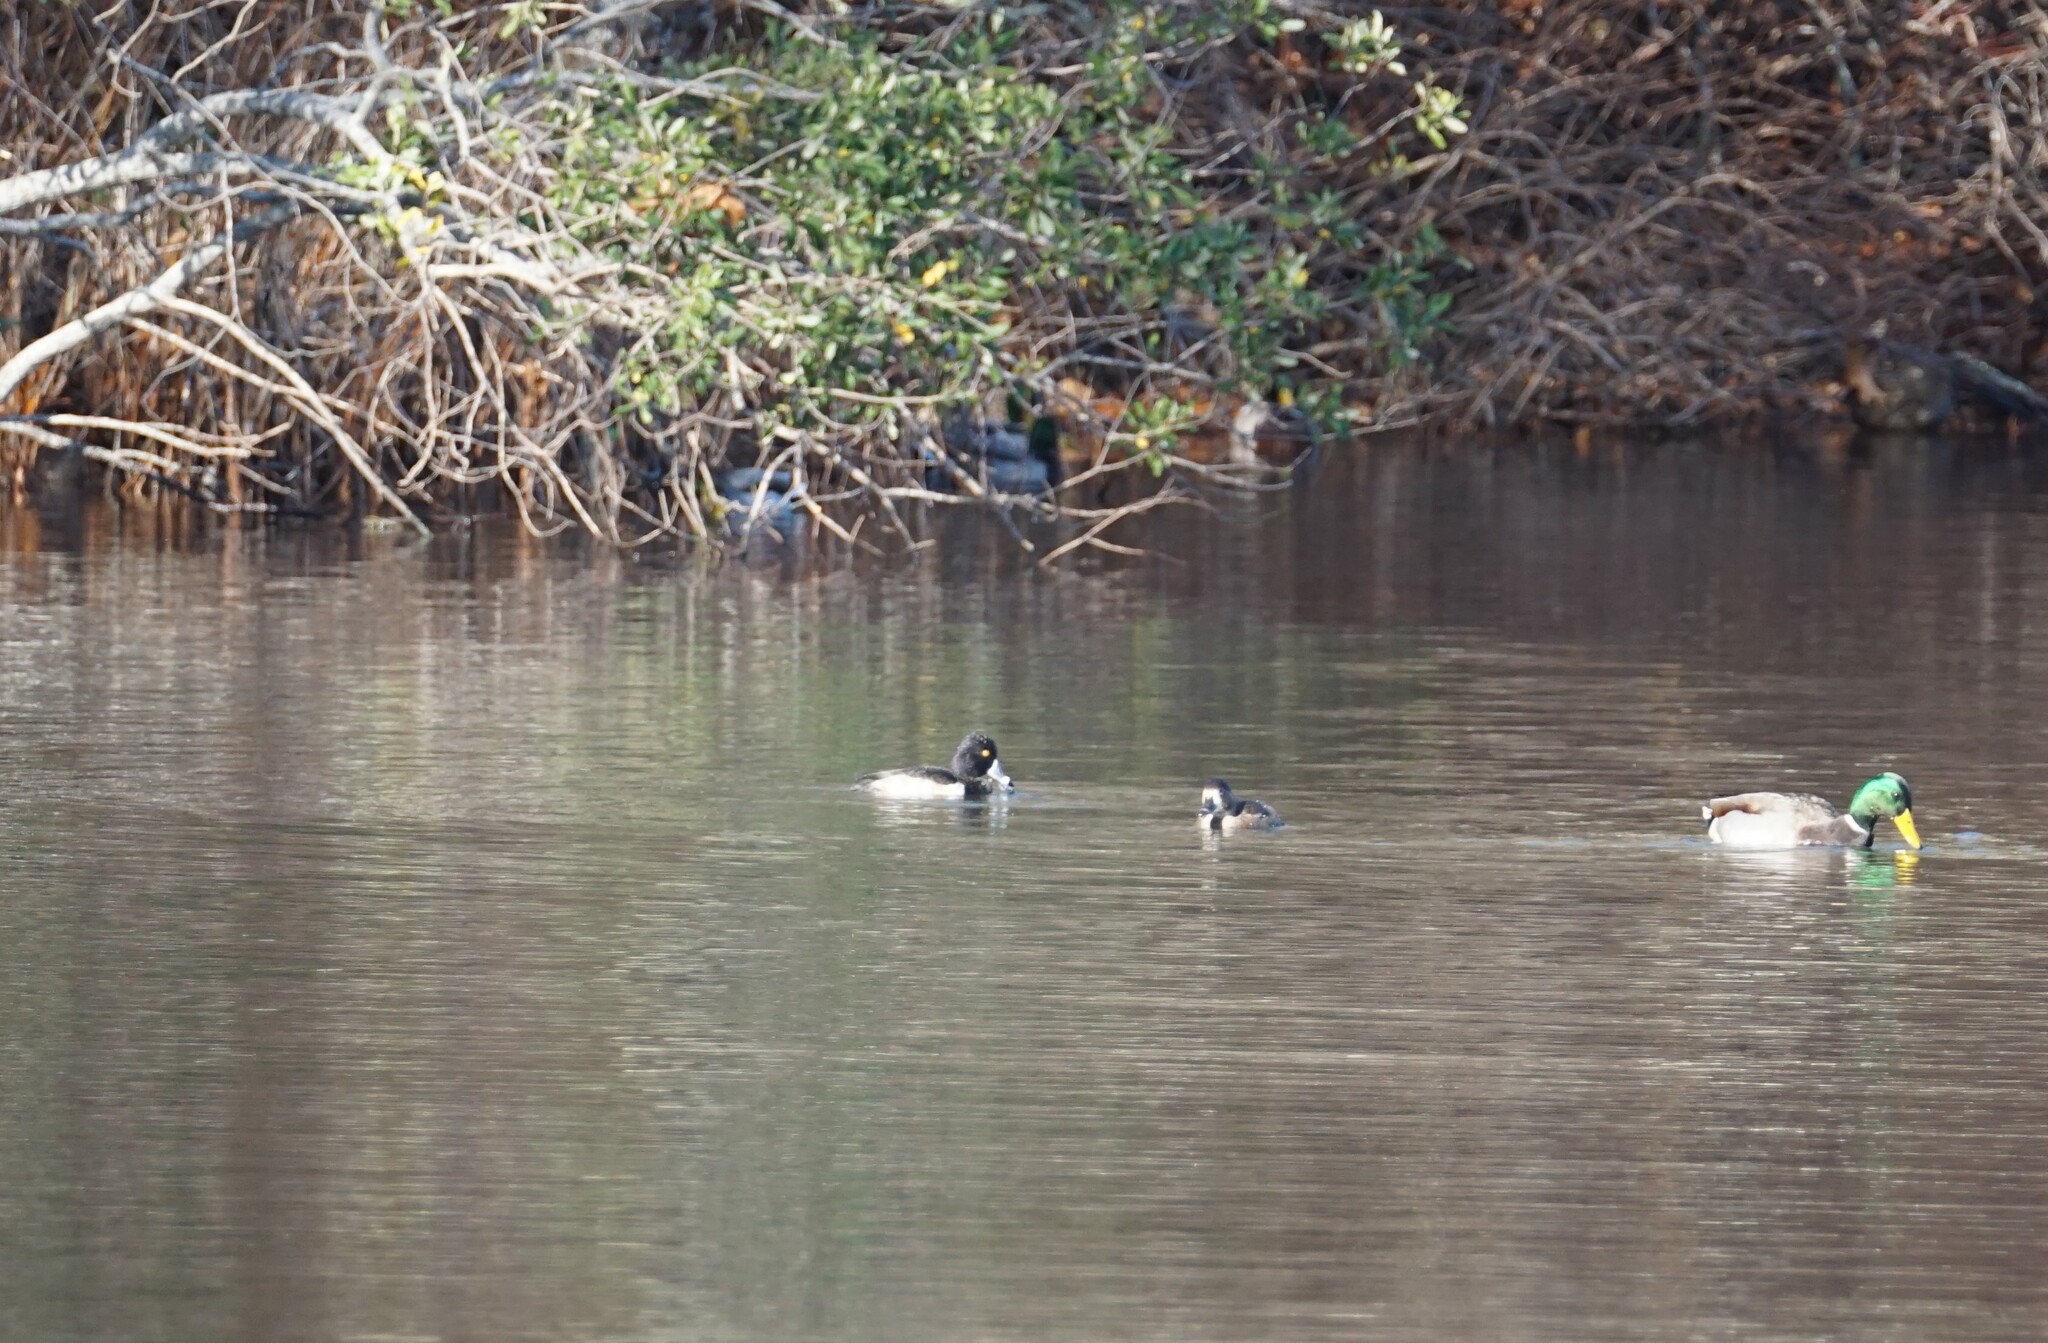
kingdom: Animalia
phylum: Chordata
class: Aves
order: Anseriformes
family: Anatidae
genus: Aythya
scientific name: Aythya collaris
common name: Ring-necked duck
